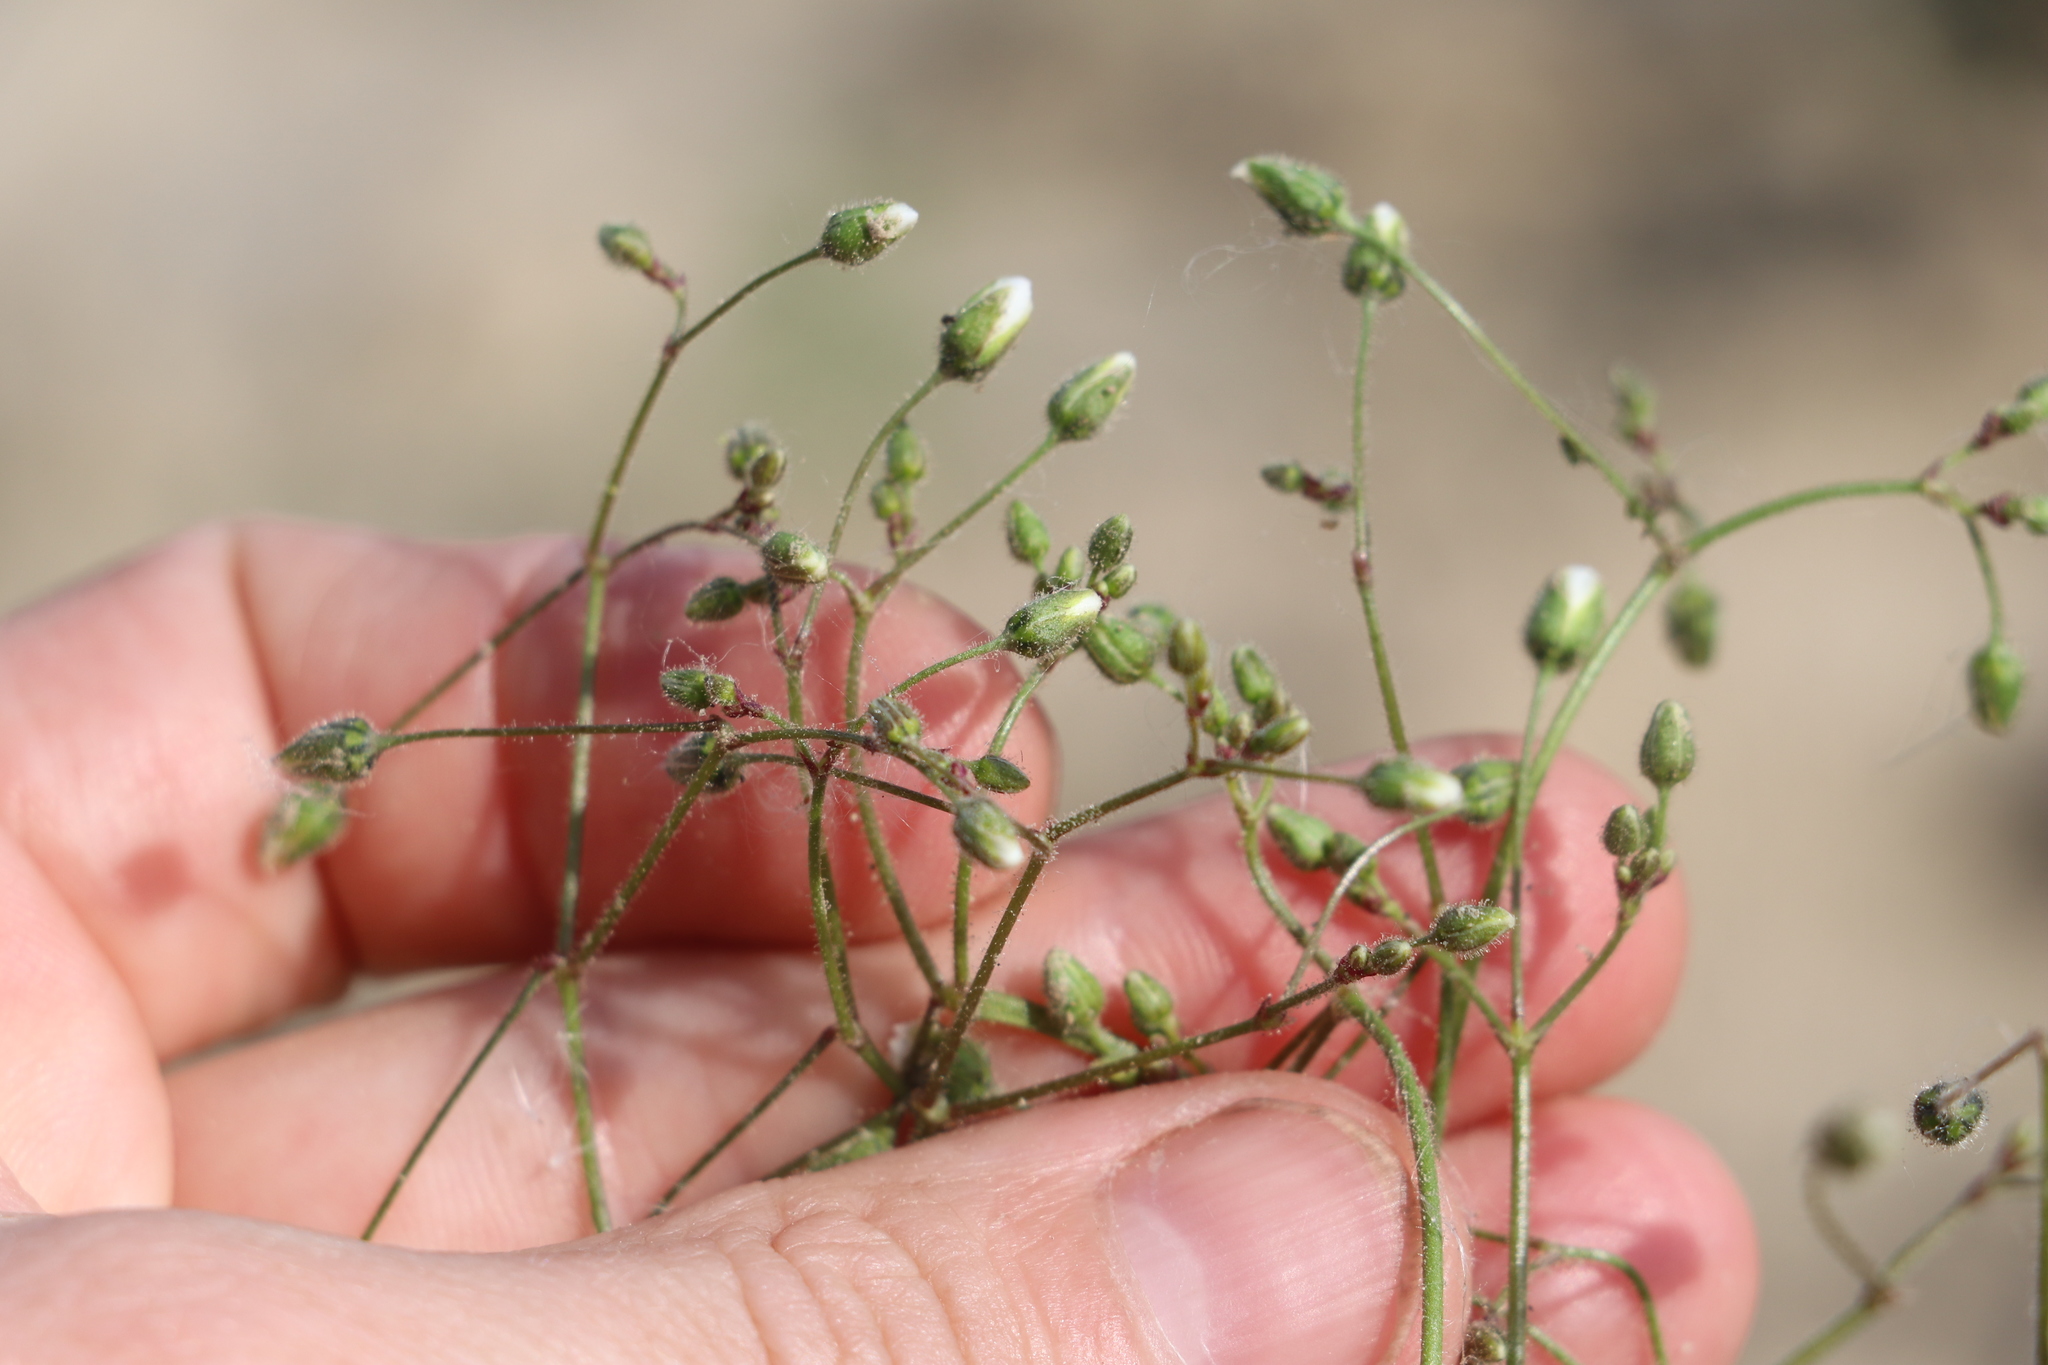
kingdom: Plantae
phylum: Tracheophyta
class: Magnoliopsida
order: Caryophyllales
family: Caryophyllaceae
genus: Spergula
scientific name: Spergula arvensis
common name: Corn spurrey
